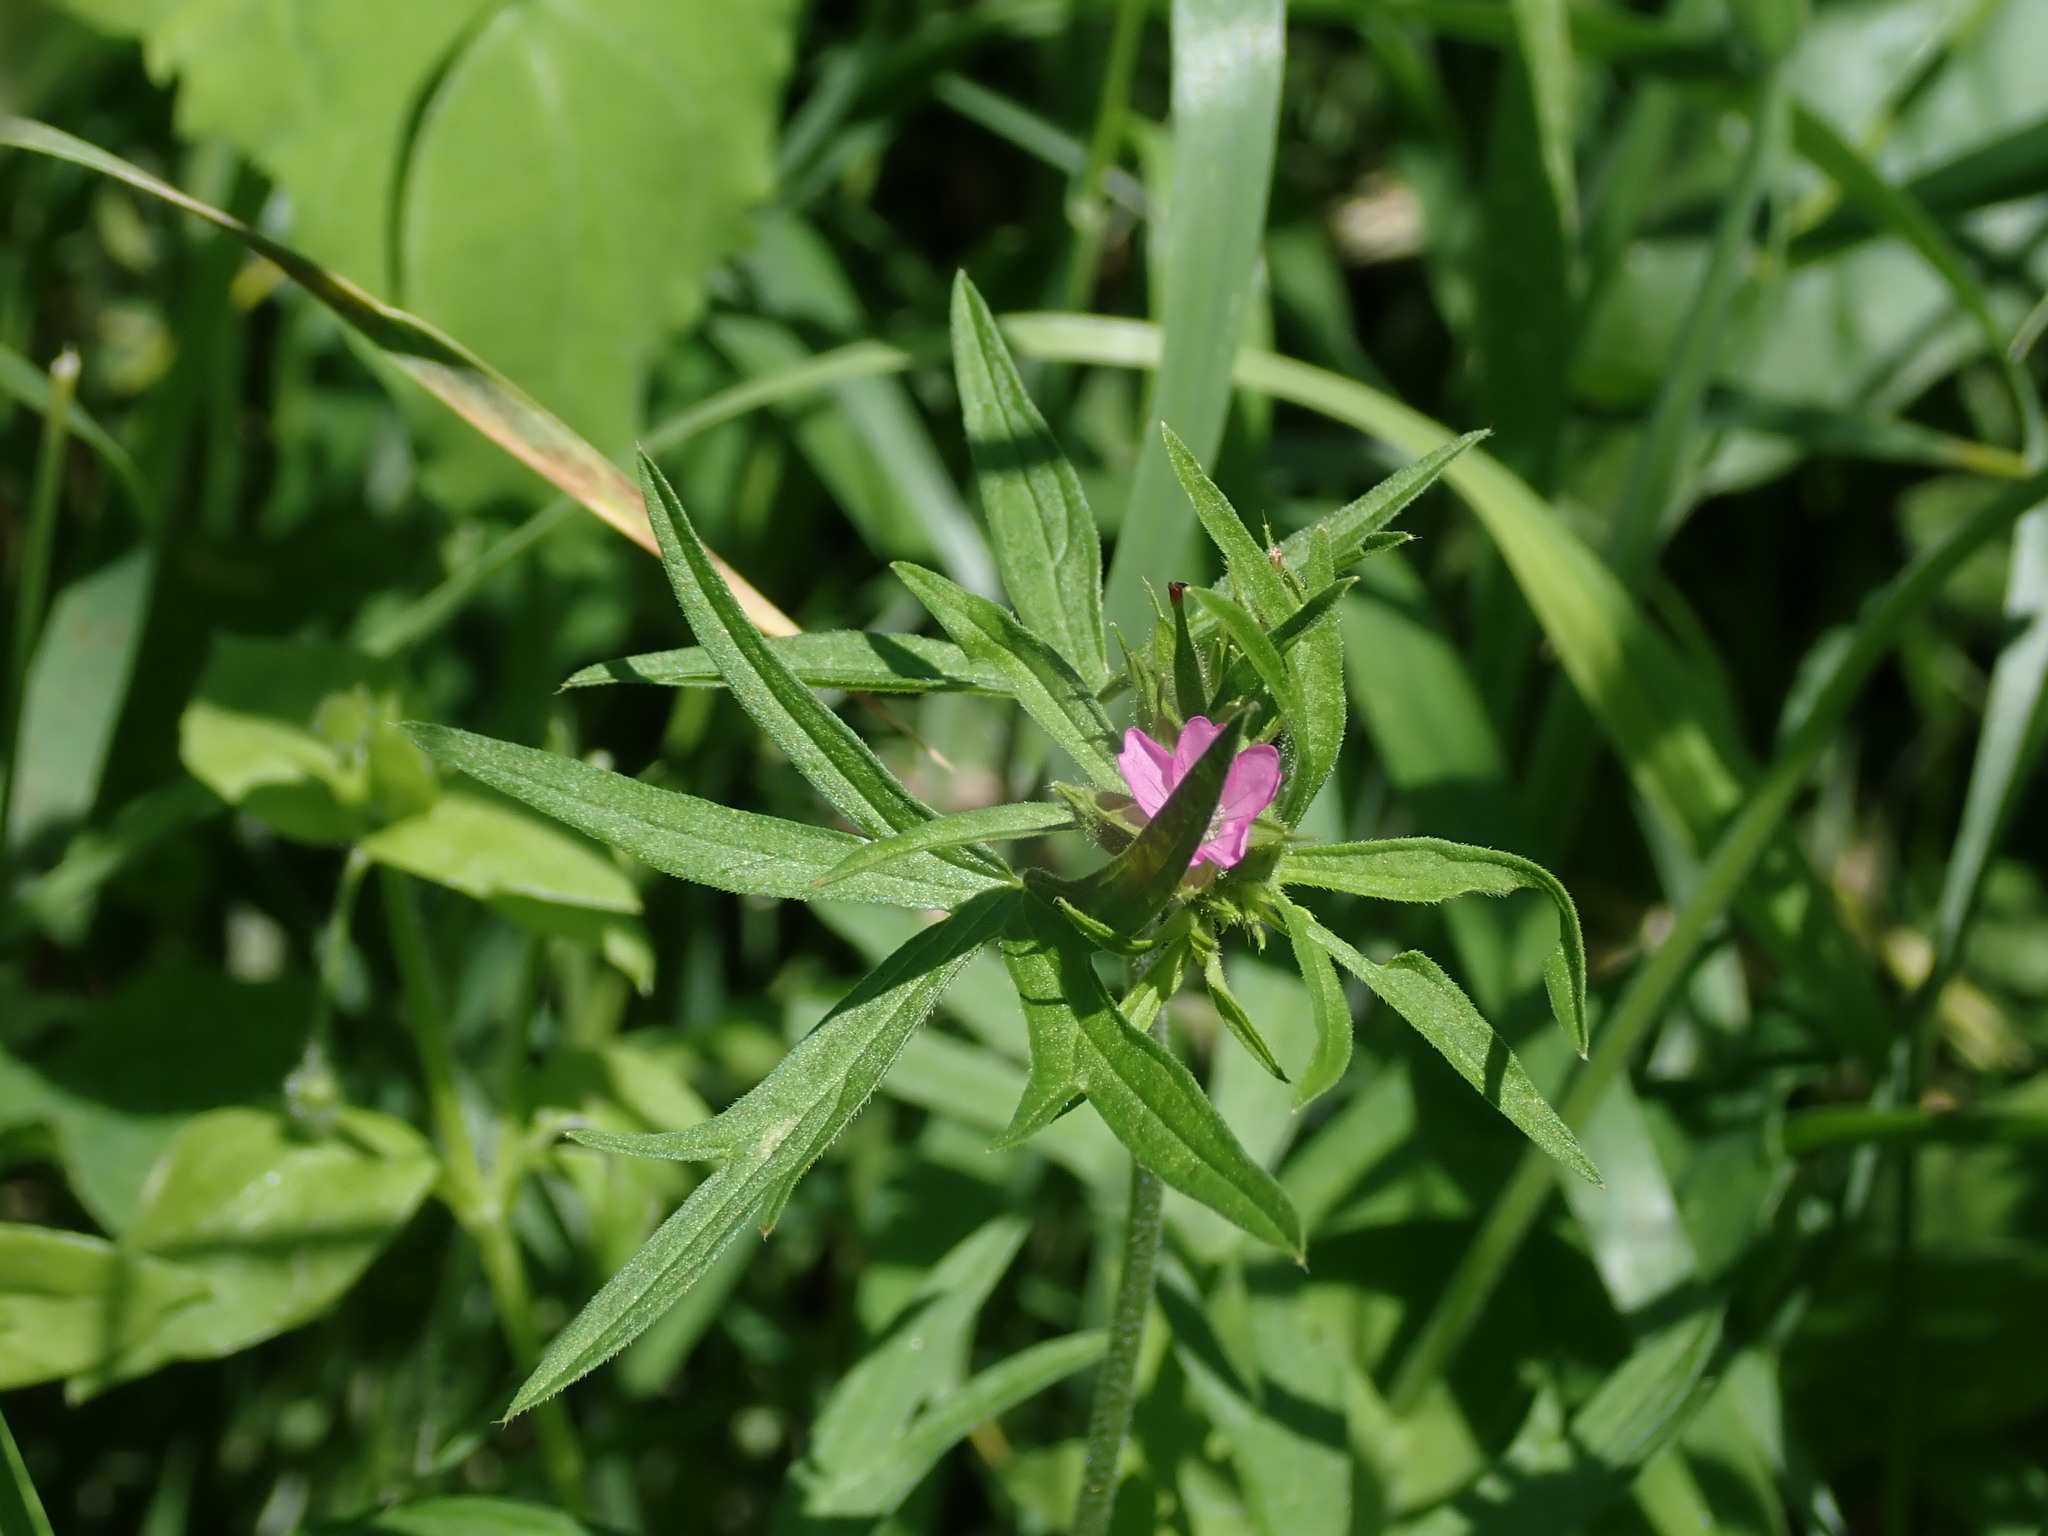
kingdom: Plantae
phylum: Tracheophyta
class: Magnoliopsida
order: Geraniales
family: Geraniaceae
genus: Geranium
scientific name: Geranium dissectum
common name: Cut-leaved crane's-bill
